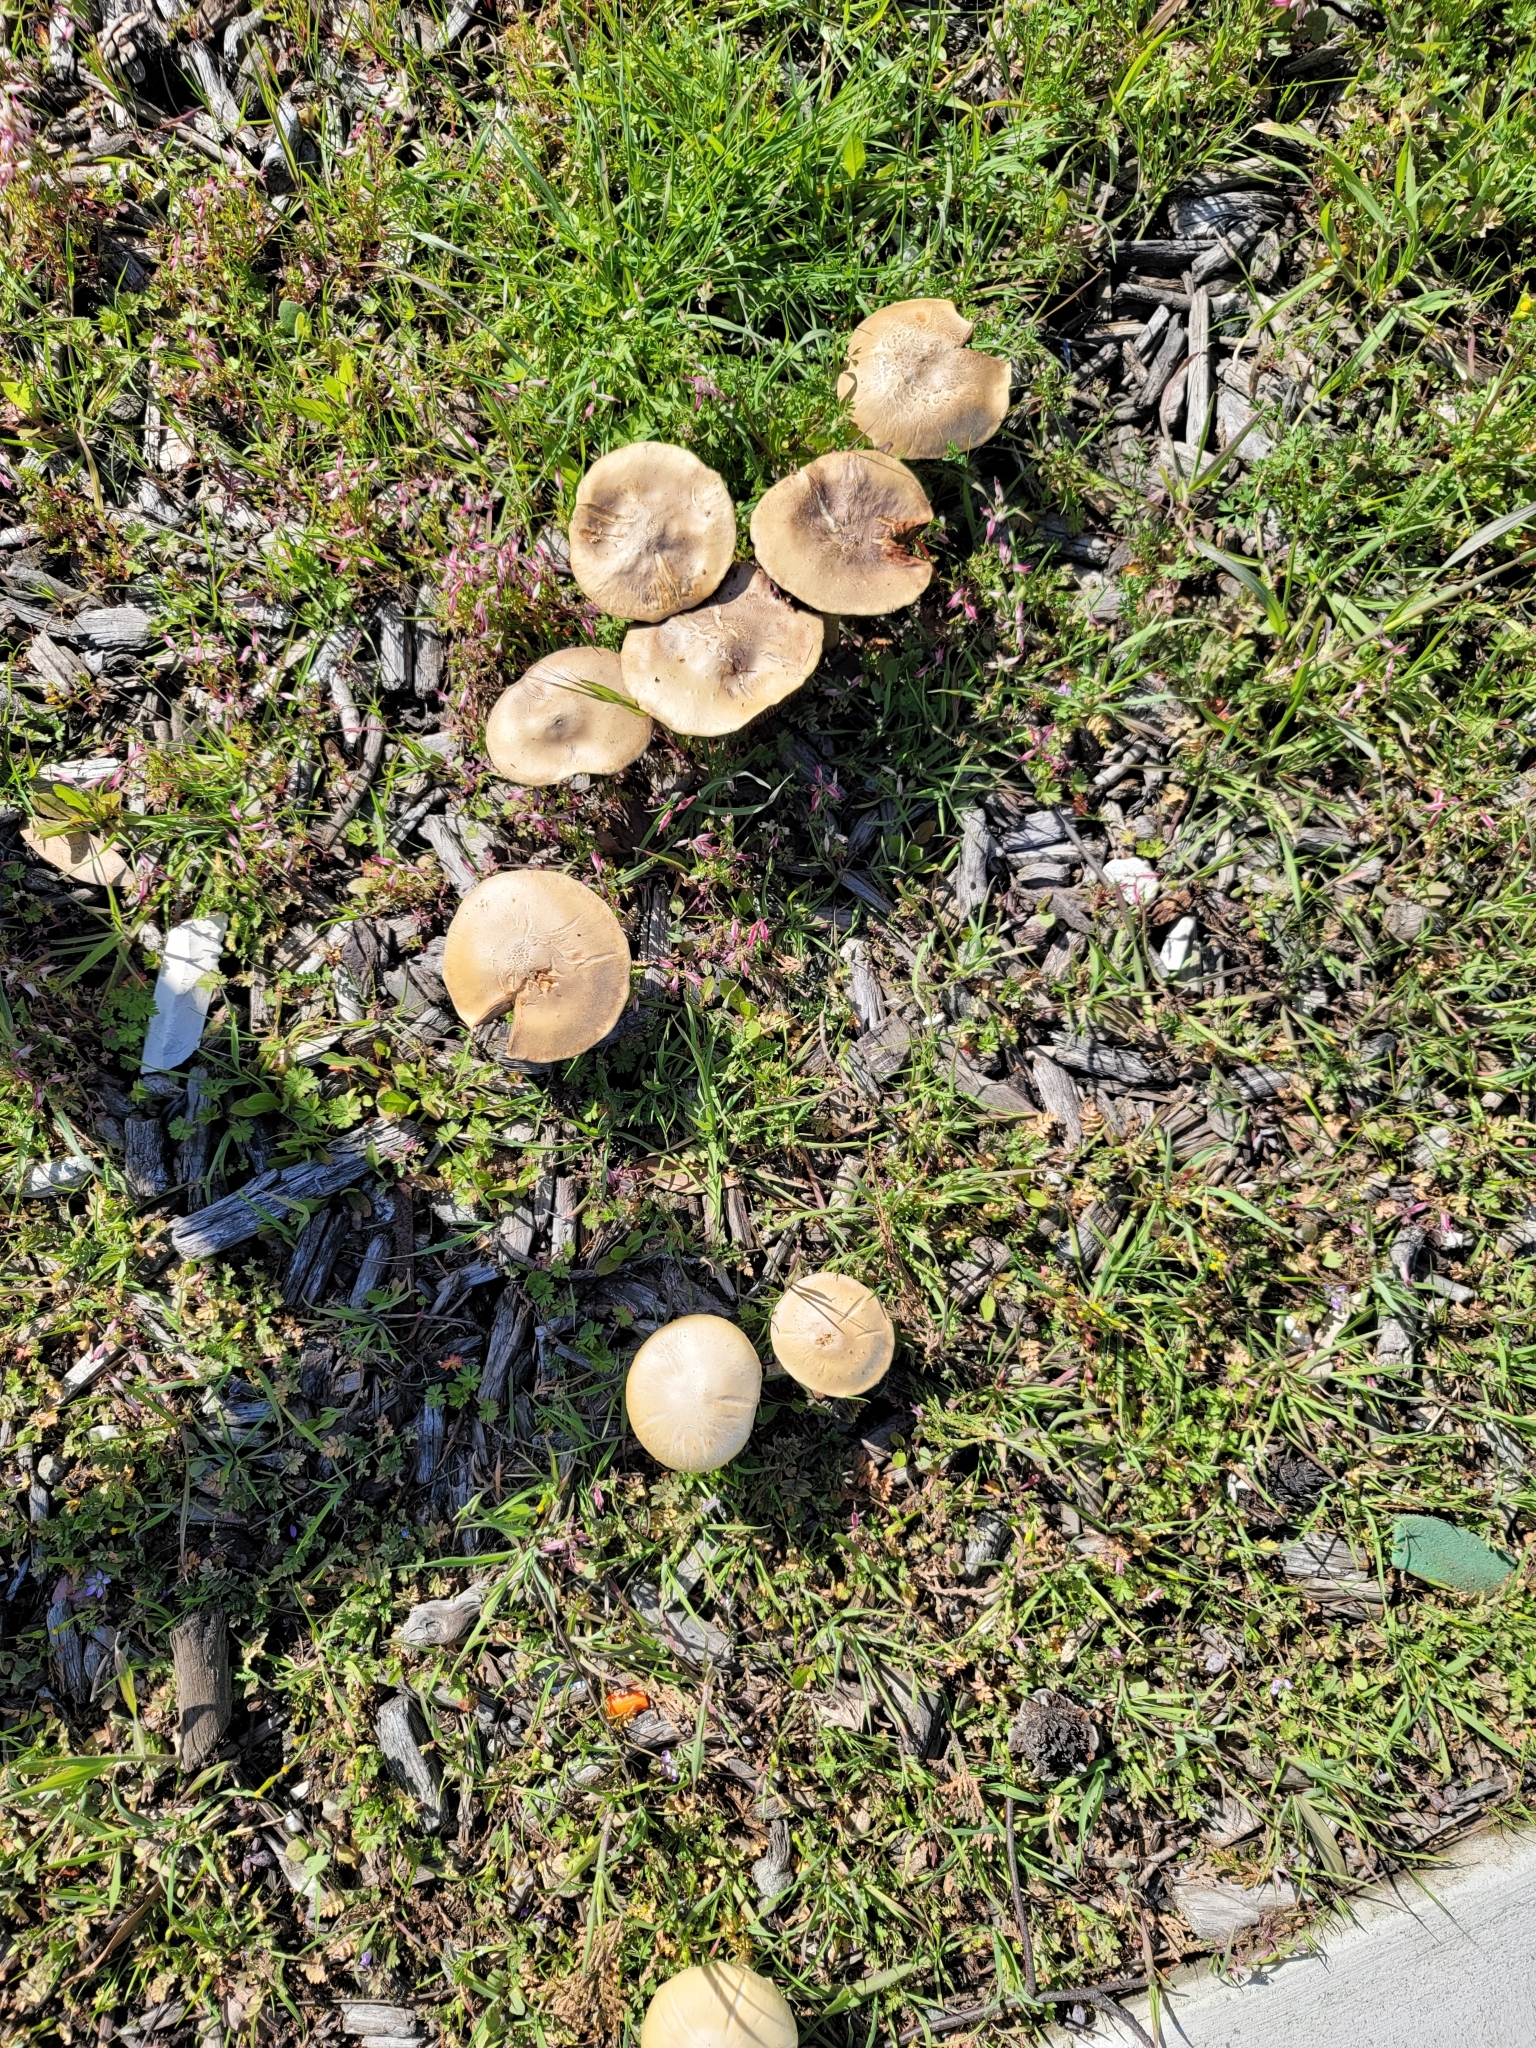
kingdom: Fungi
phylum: Basidiomycota
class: Agaricomycetes
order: Agaricales
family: Strophariaceae
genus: Leratiomyces
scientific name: Leratiomyces percevalii
